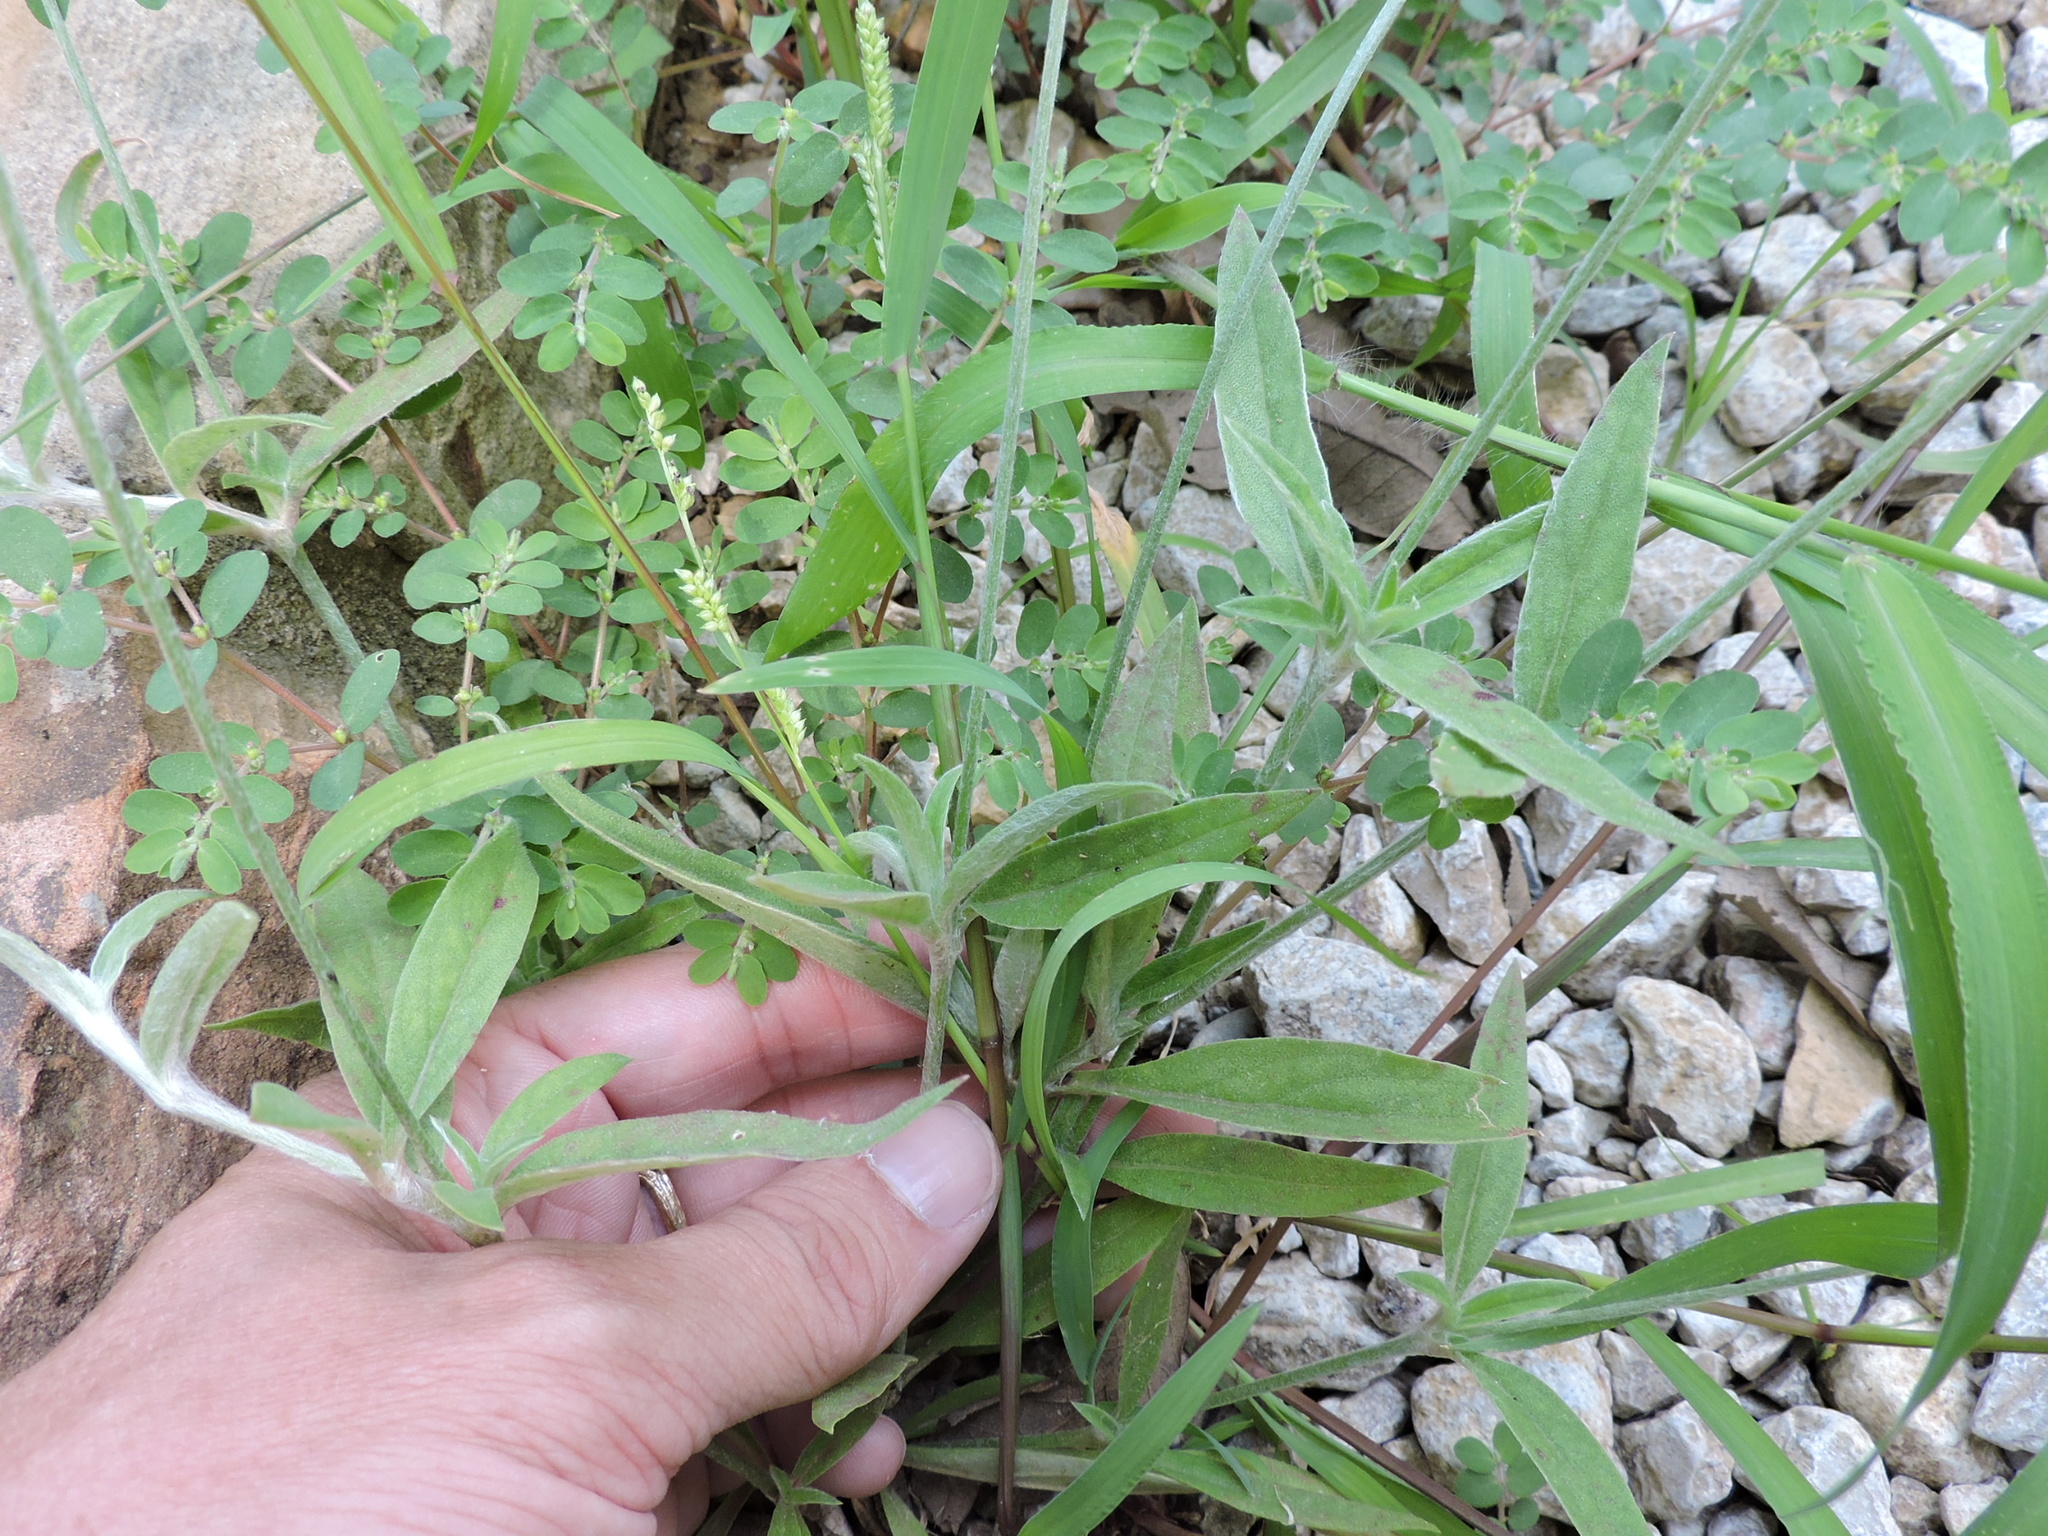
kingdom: Plantae
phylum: Tracheophyta
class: Magnoliopsida
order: Caryophyllales
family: Amaranthaceae
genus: Froelichia
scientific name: Froelichia floridana
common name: Florida snake-cotton
